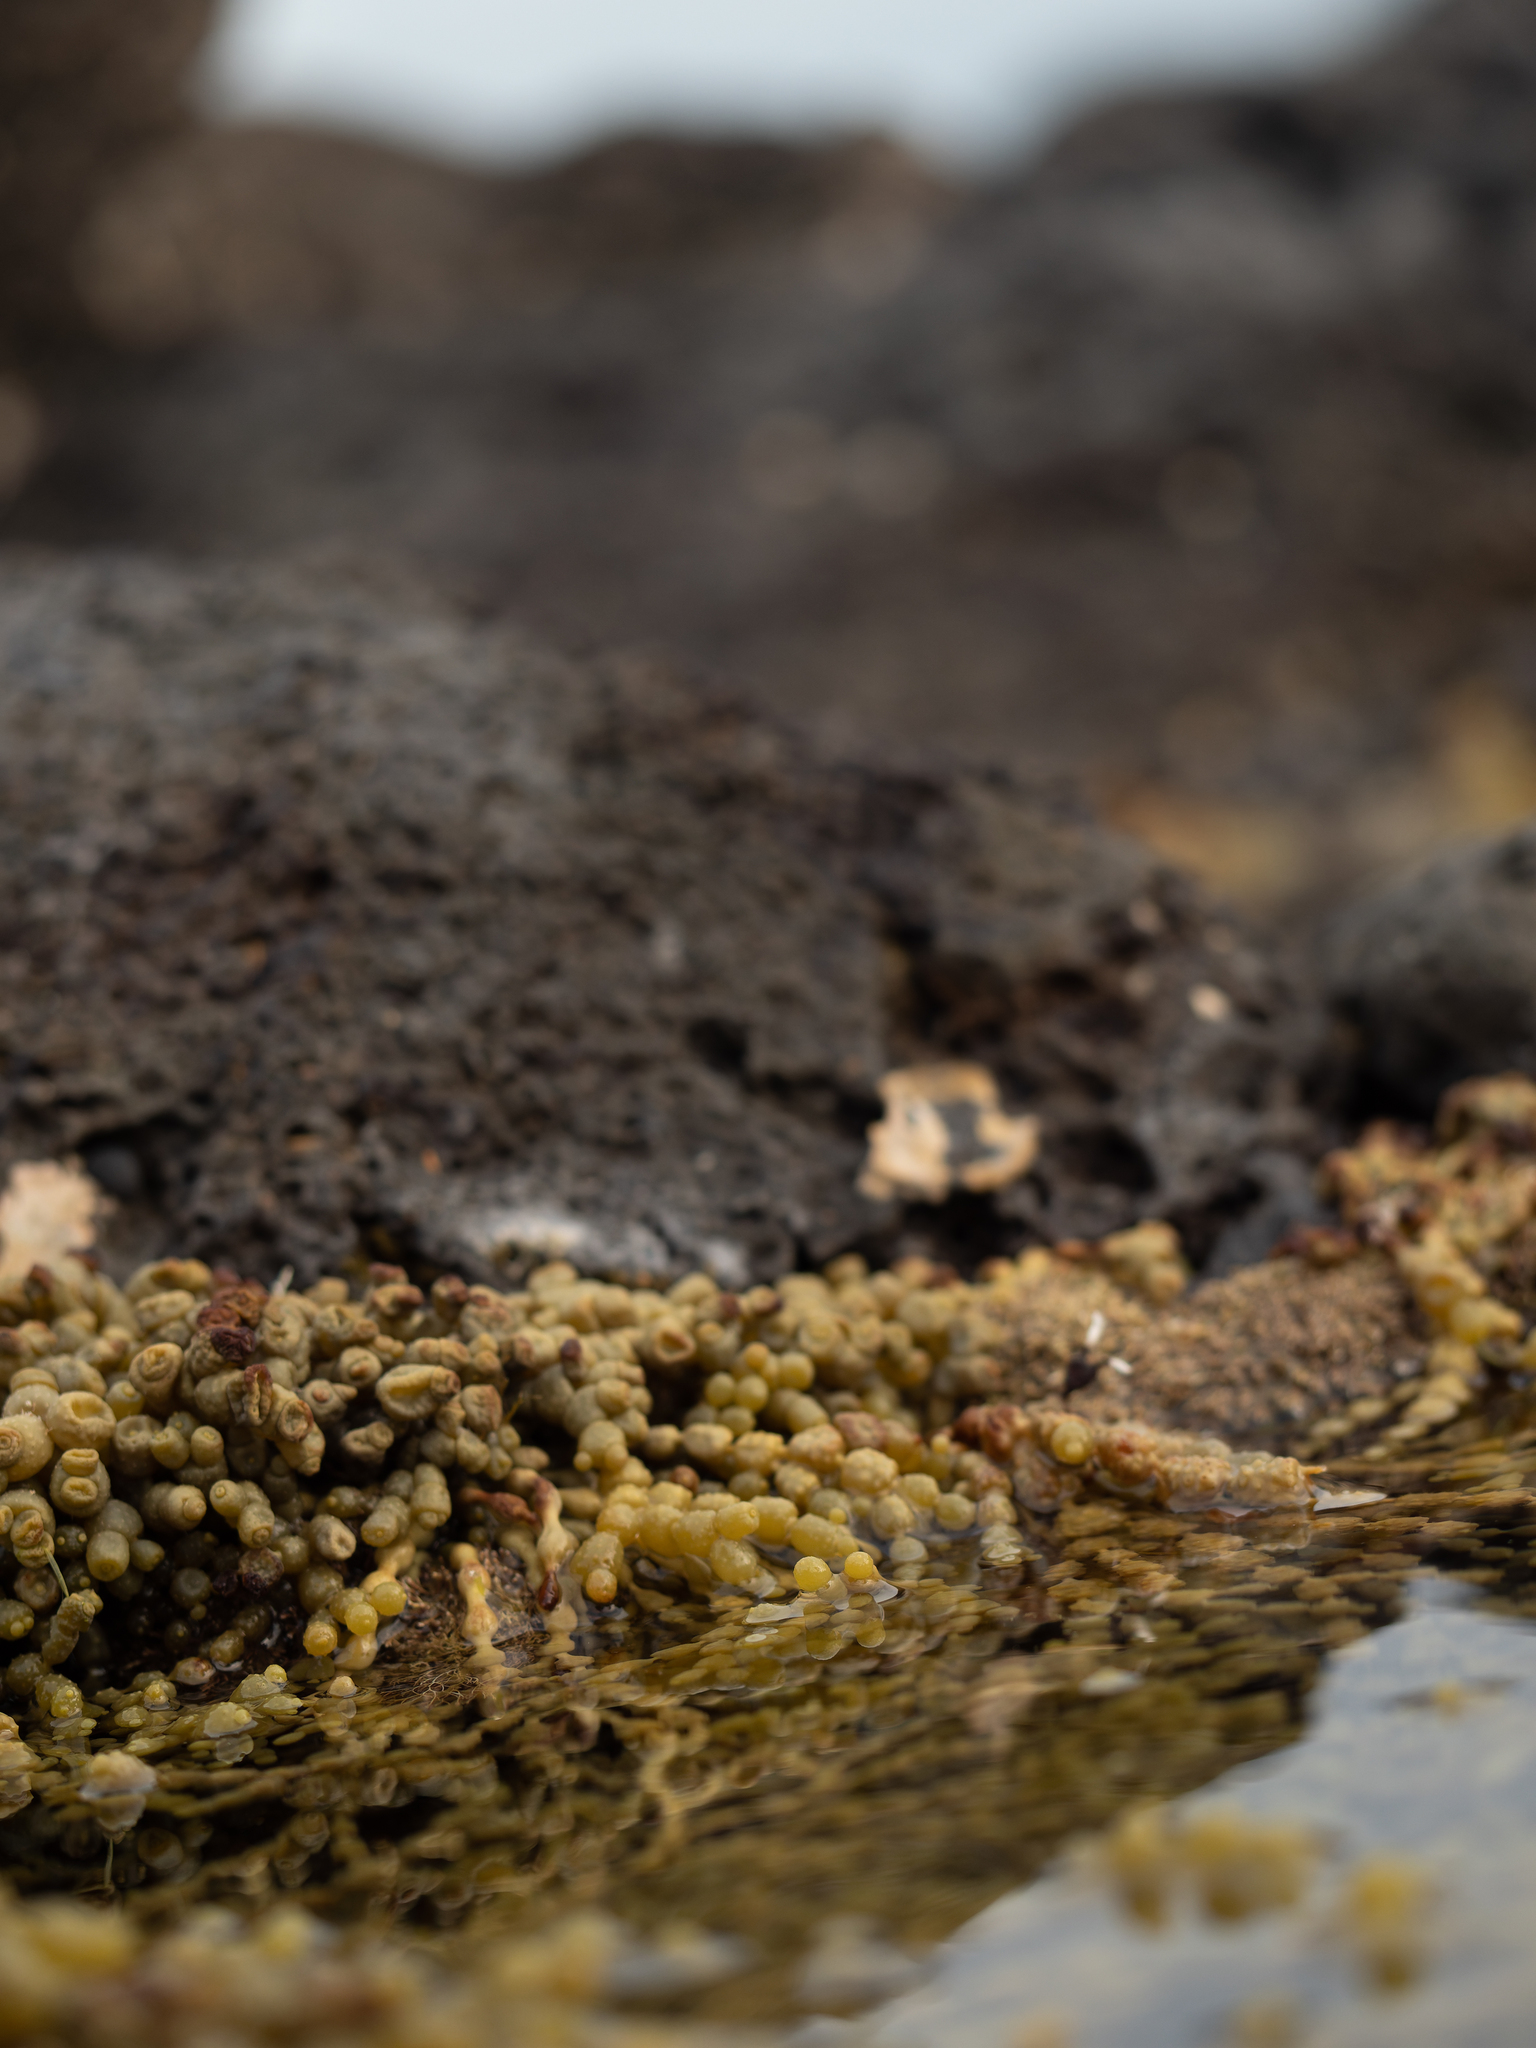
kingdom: Chromista
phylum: Ochrophyta
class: Phaeophyceae
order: Fucales
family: Hormosiraceae
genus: Hormosira
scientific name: Hormosira banksii
